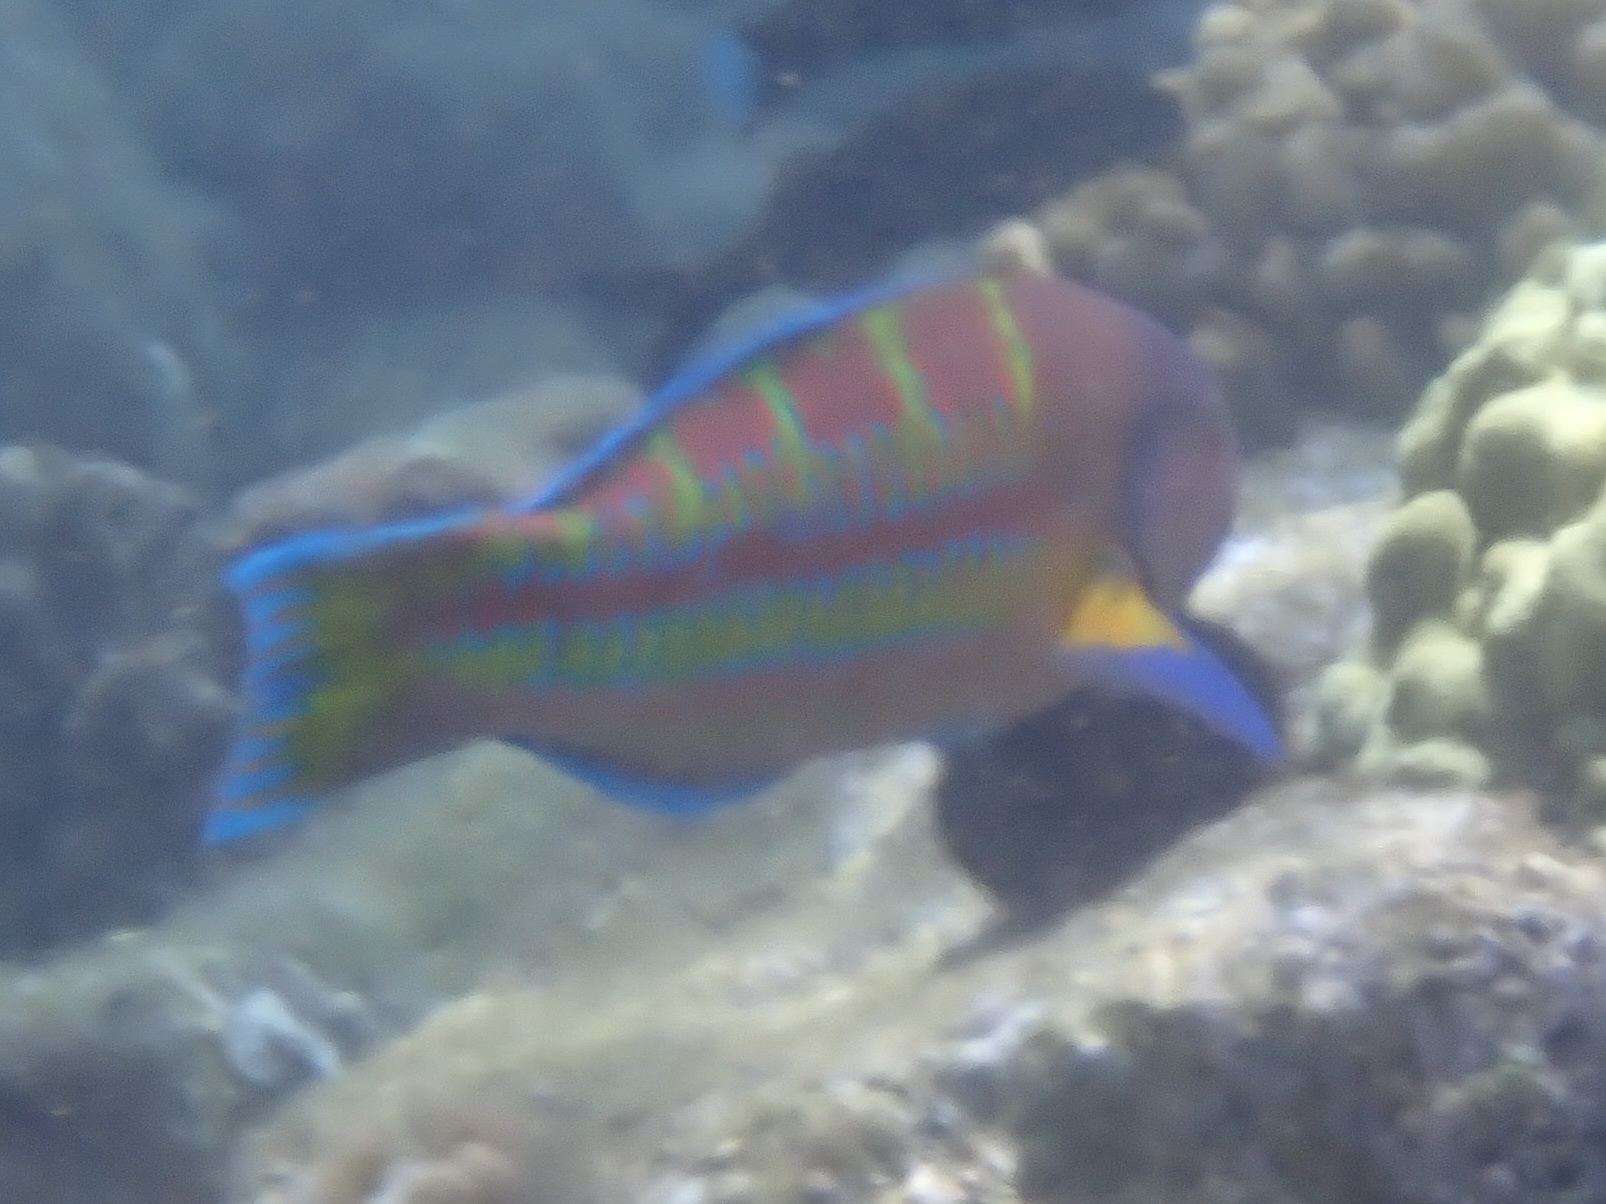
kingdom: Animalia
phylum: Chordata
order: Perciformes
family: Labridae
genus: Thalassoma
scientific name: Thalassoma trilobatum
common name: Christmas wrasse
